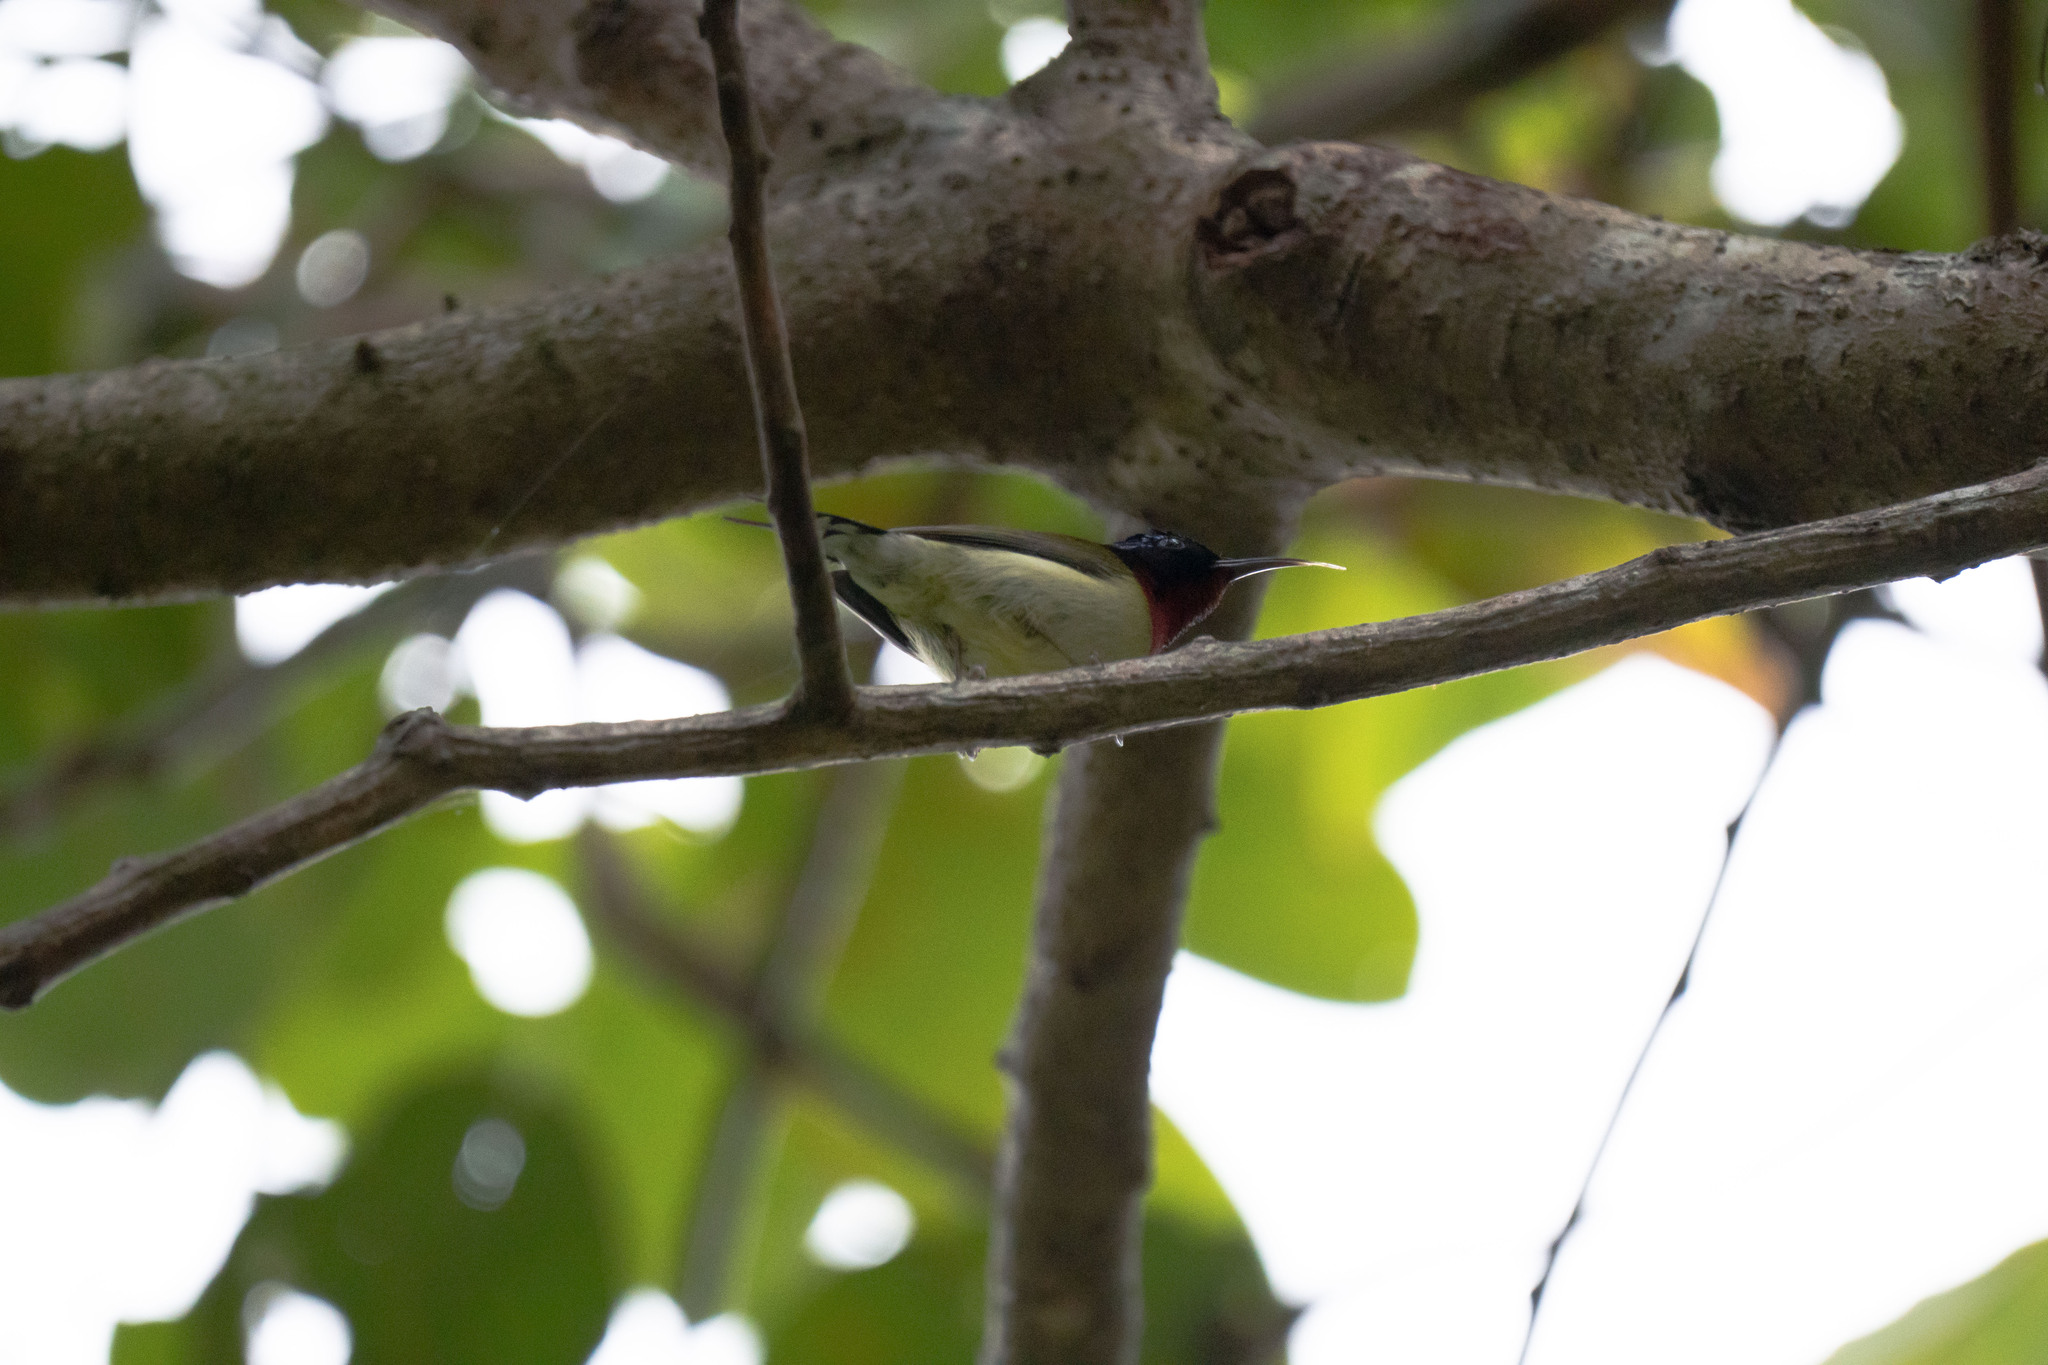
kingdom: Animalia
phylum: Chordata
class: Aves
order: Passeriformes
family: Nectariniidae
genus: Aethopyga
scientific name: Aethopyga christinae
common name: Fork-tailed sunbird
